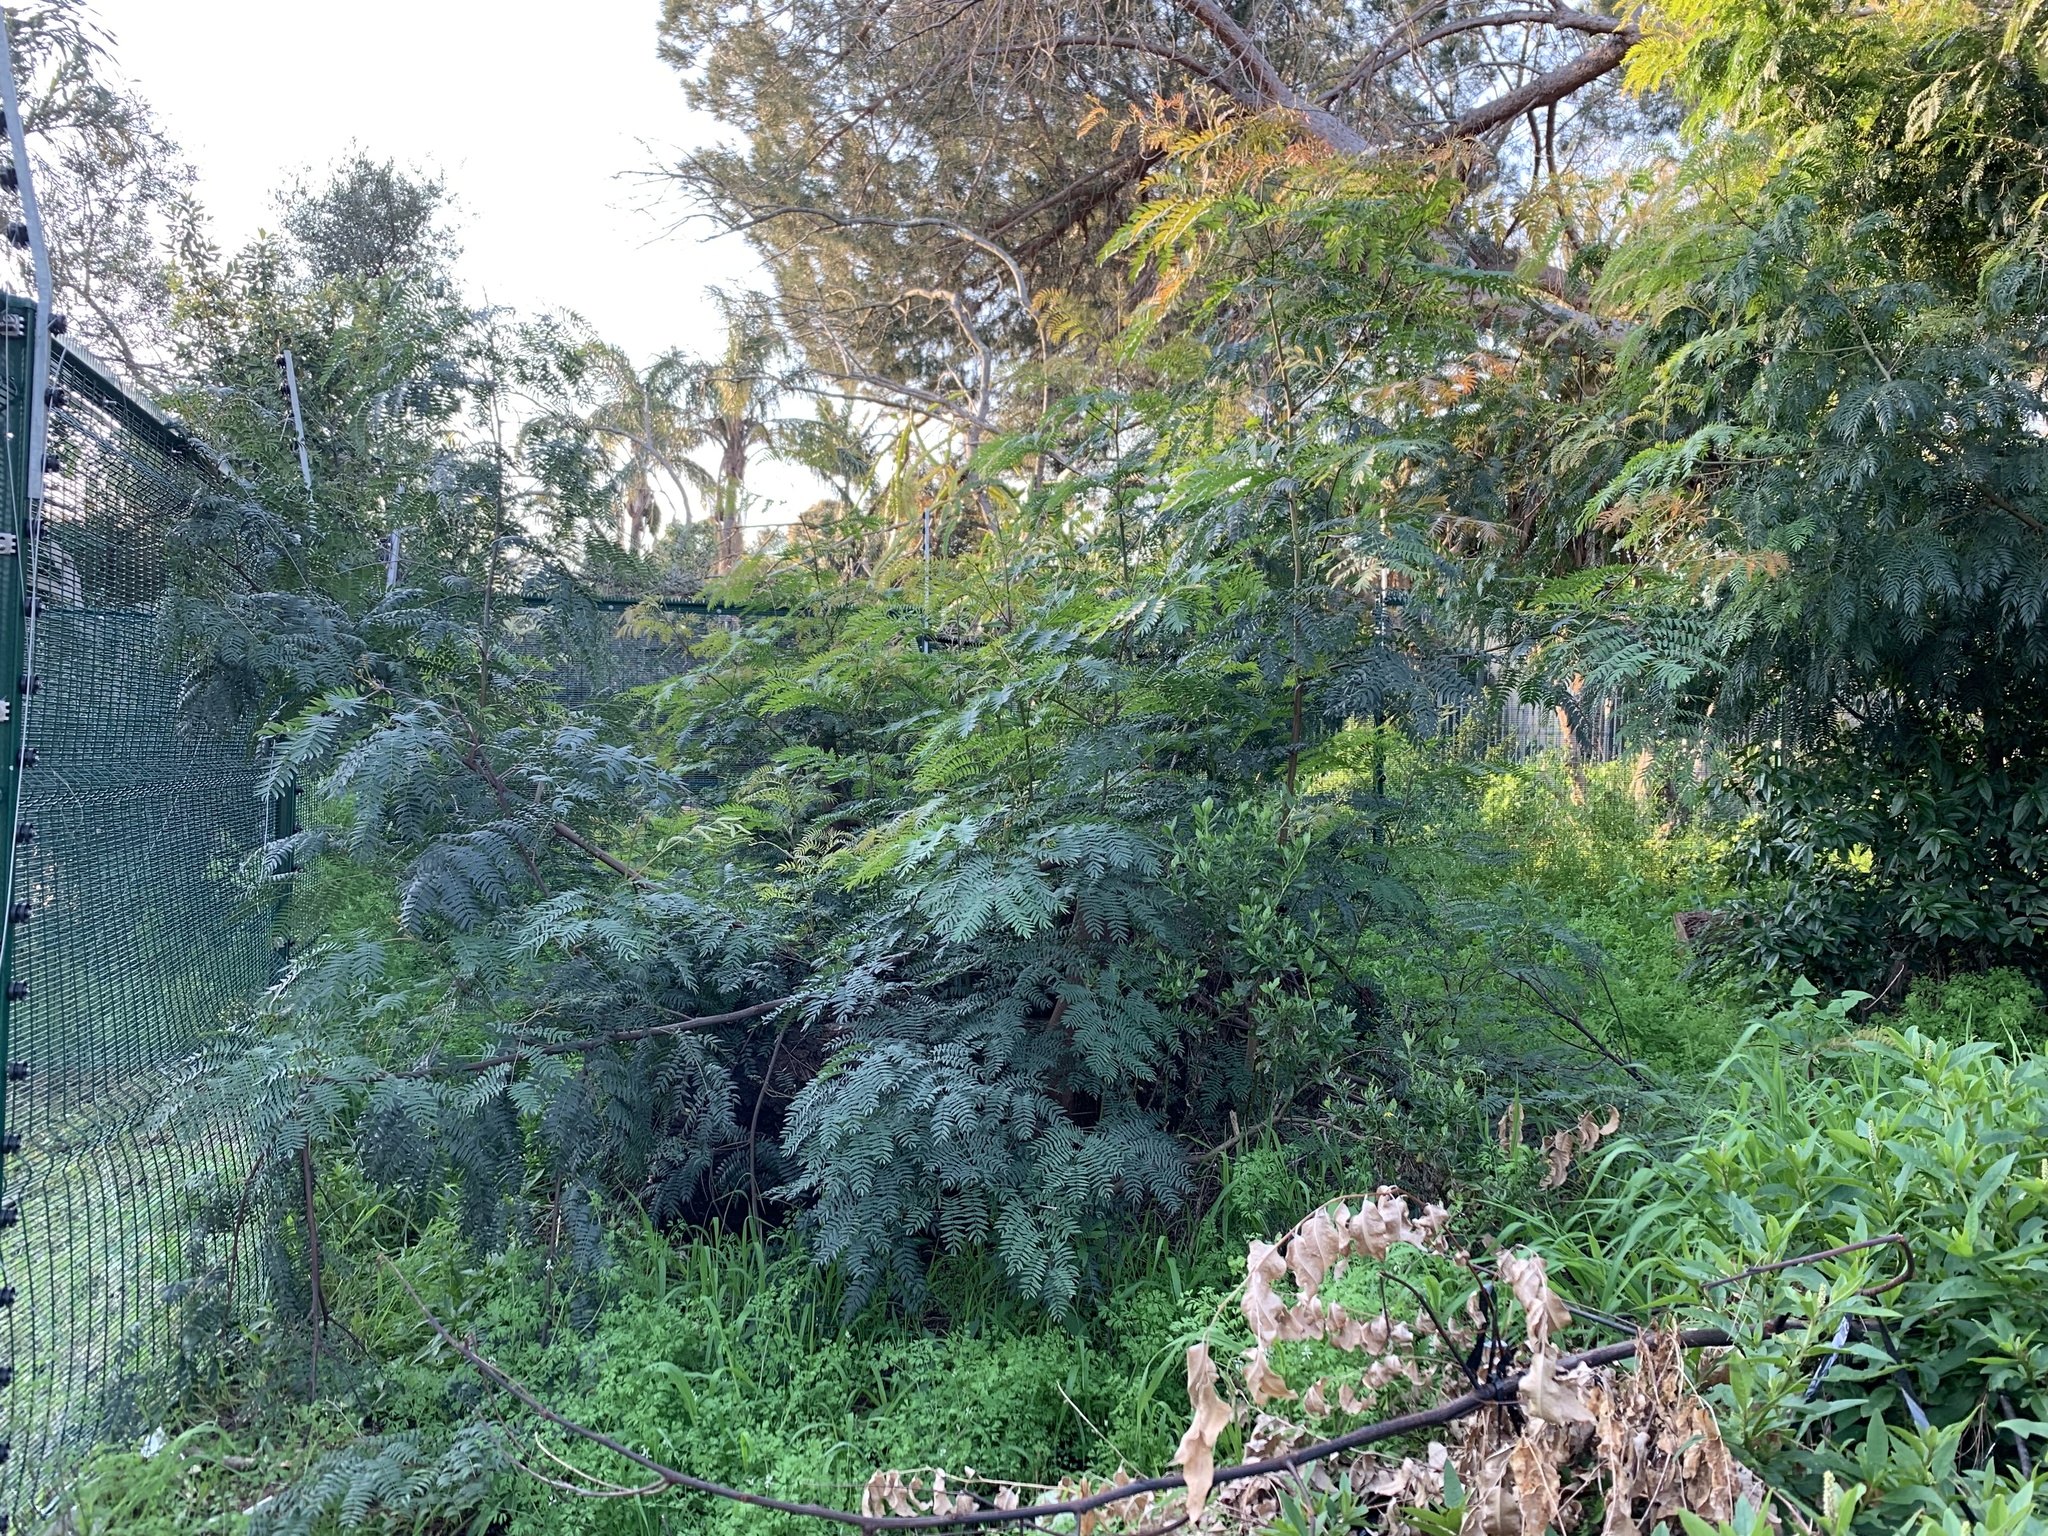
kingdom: Plantae
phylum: Tracheophyta
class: Magnoliopsida
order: Fabales
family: Fabaceae
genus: Acacia
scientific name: Acacia elata
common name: Cedar wattle
